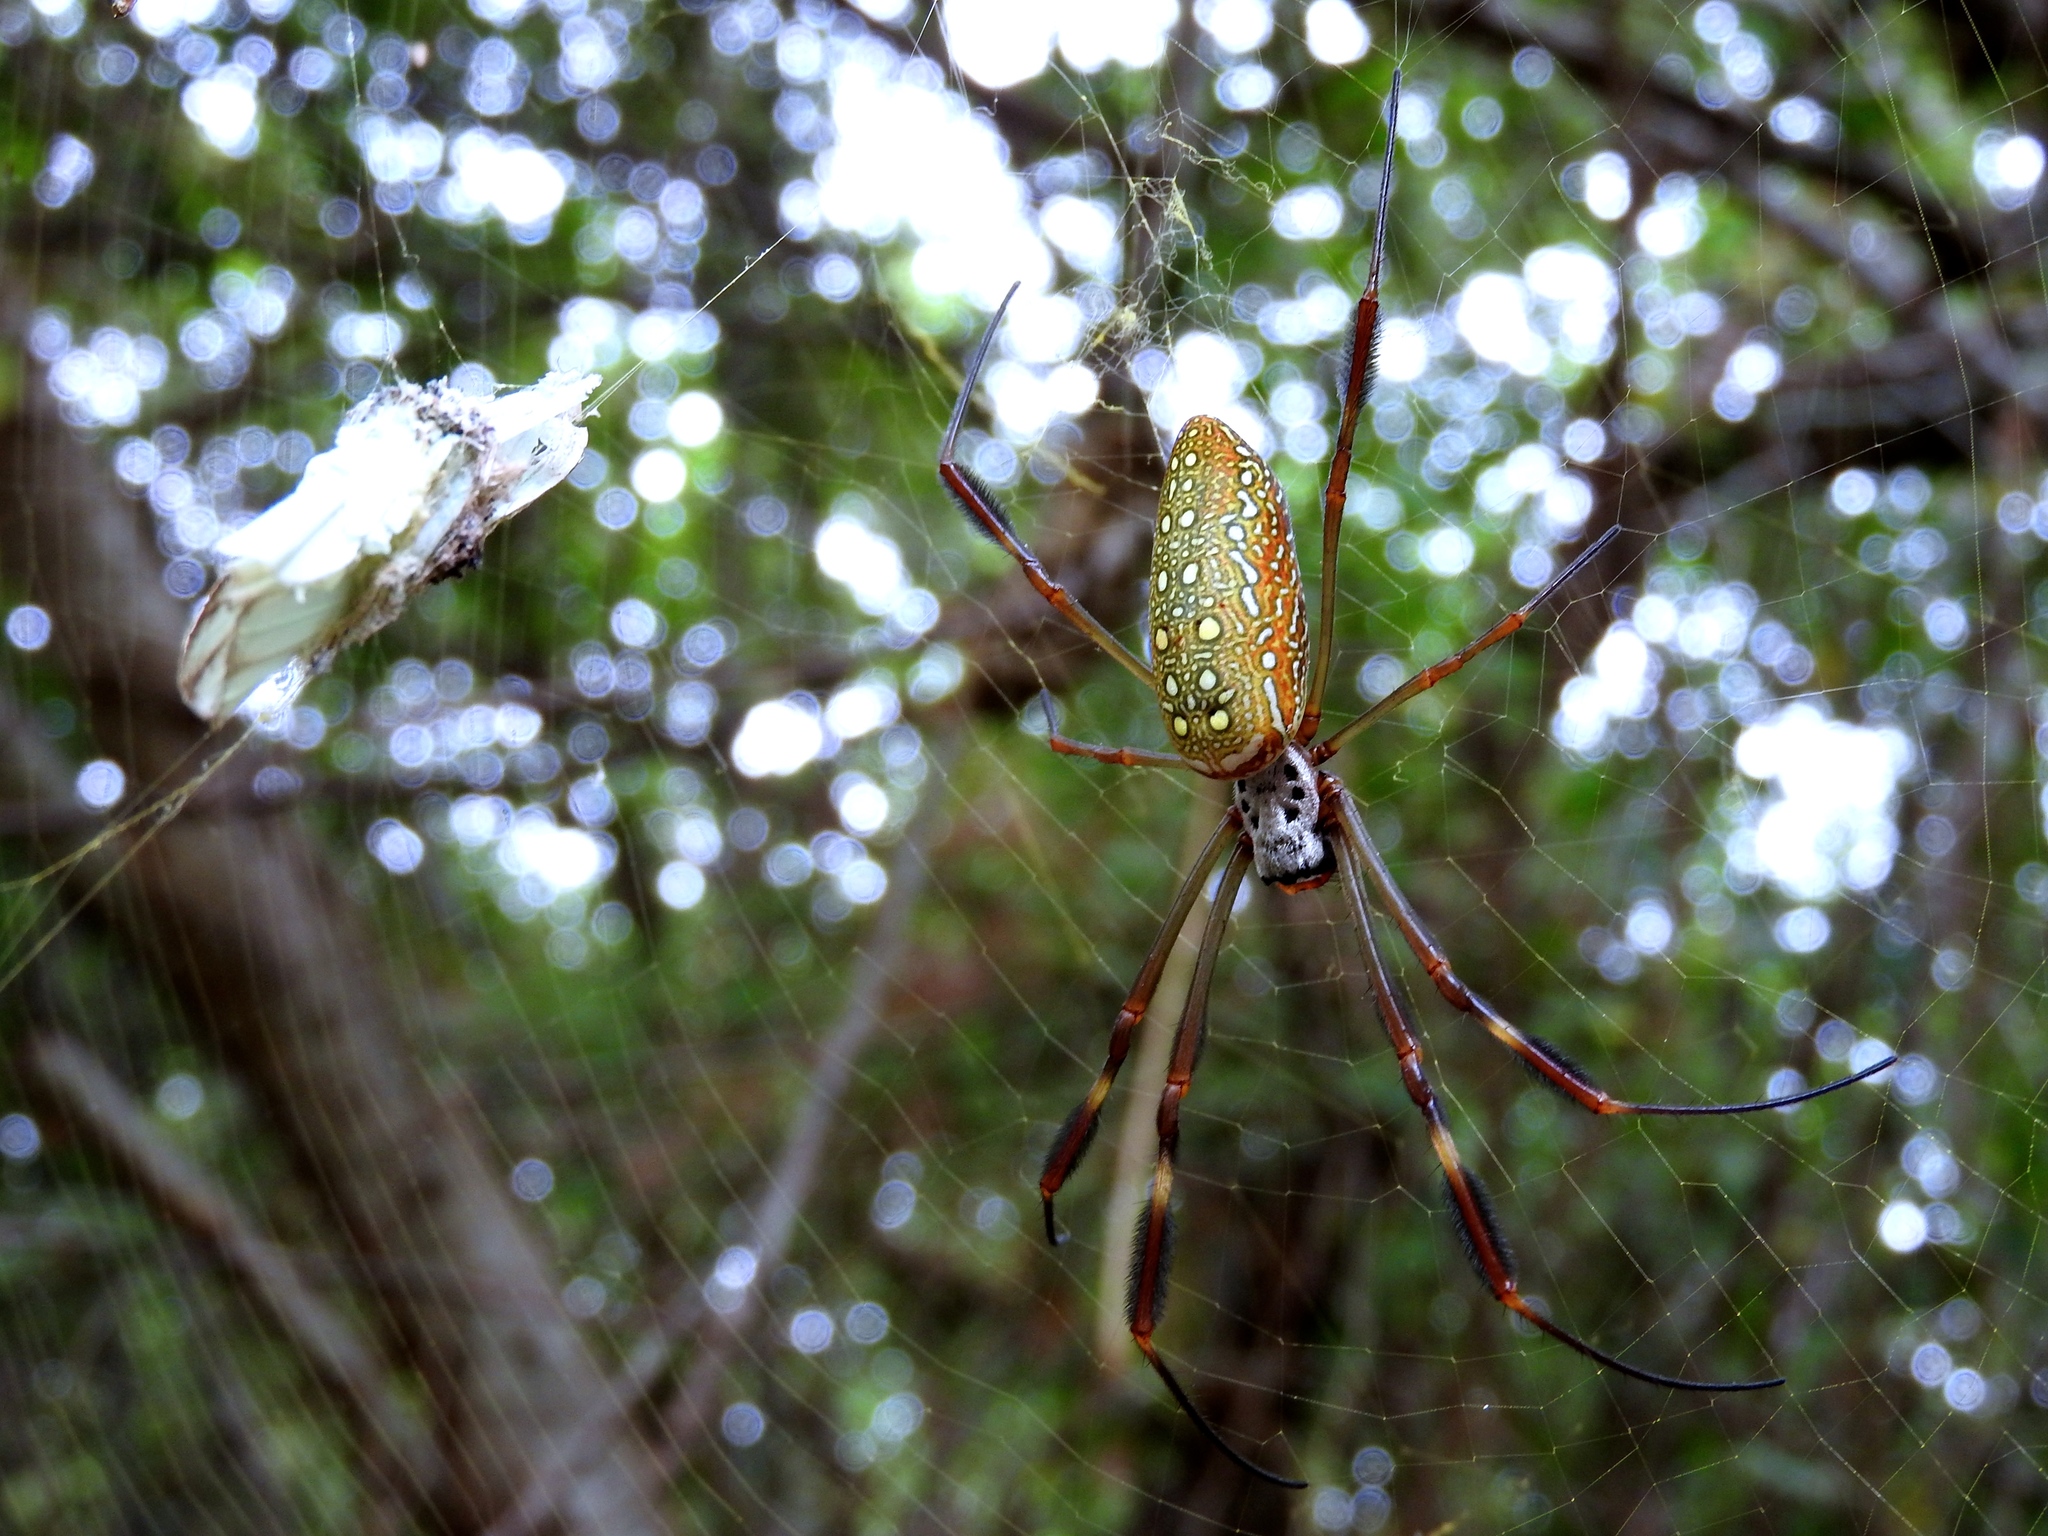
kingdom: Animalia
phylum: Arthropoda
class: Arachnida
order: Araneae
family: Araneidae
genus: Trichonephila
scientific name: Trichonephila clavipes
